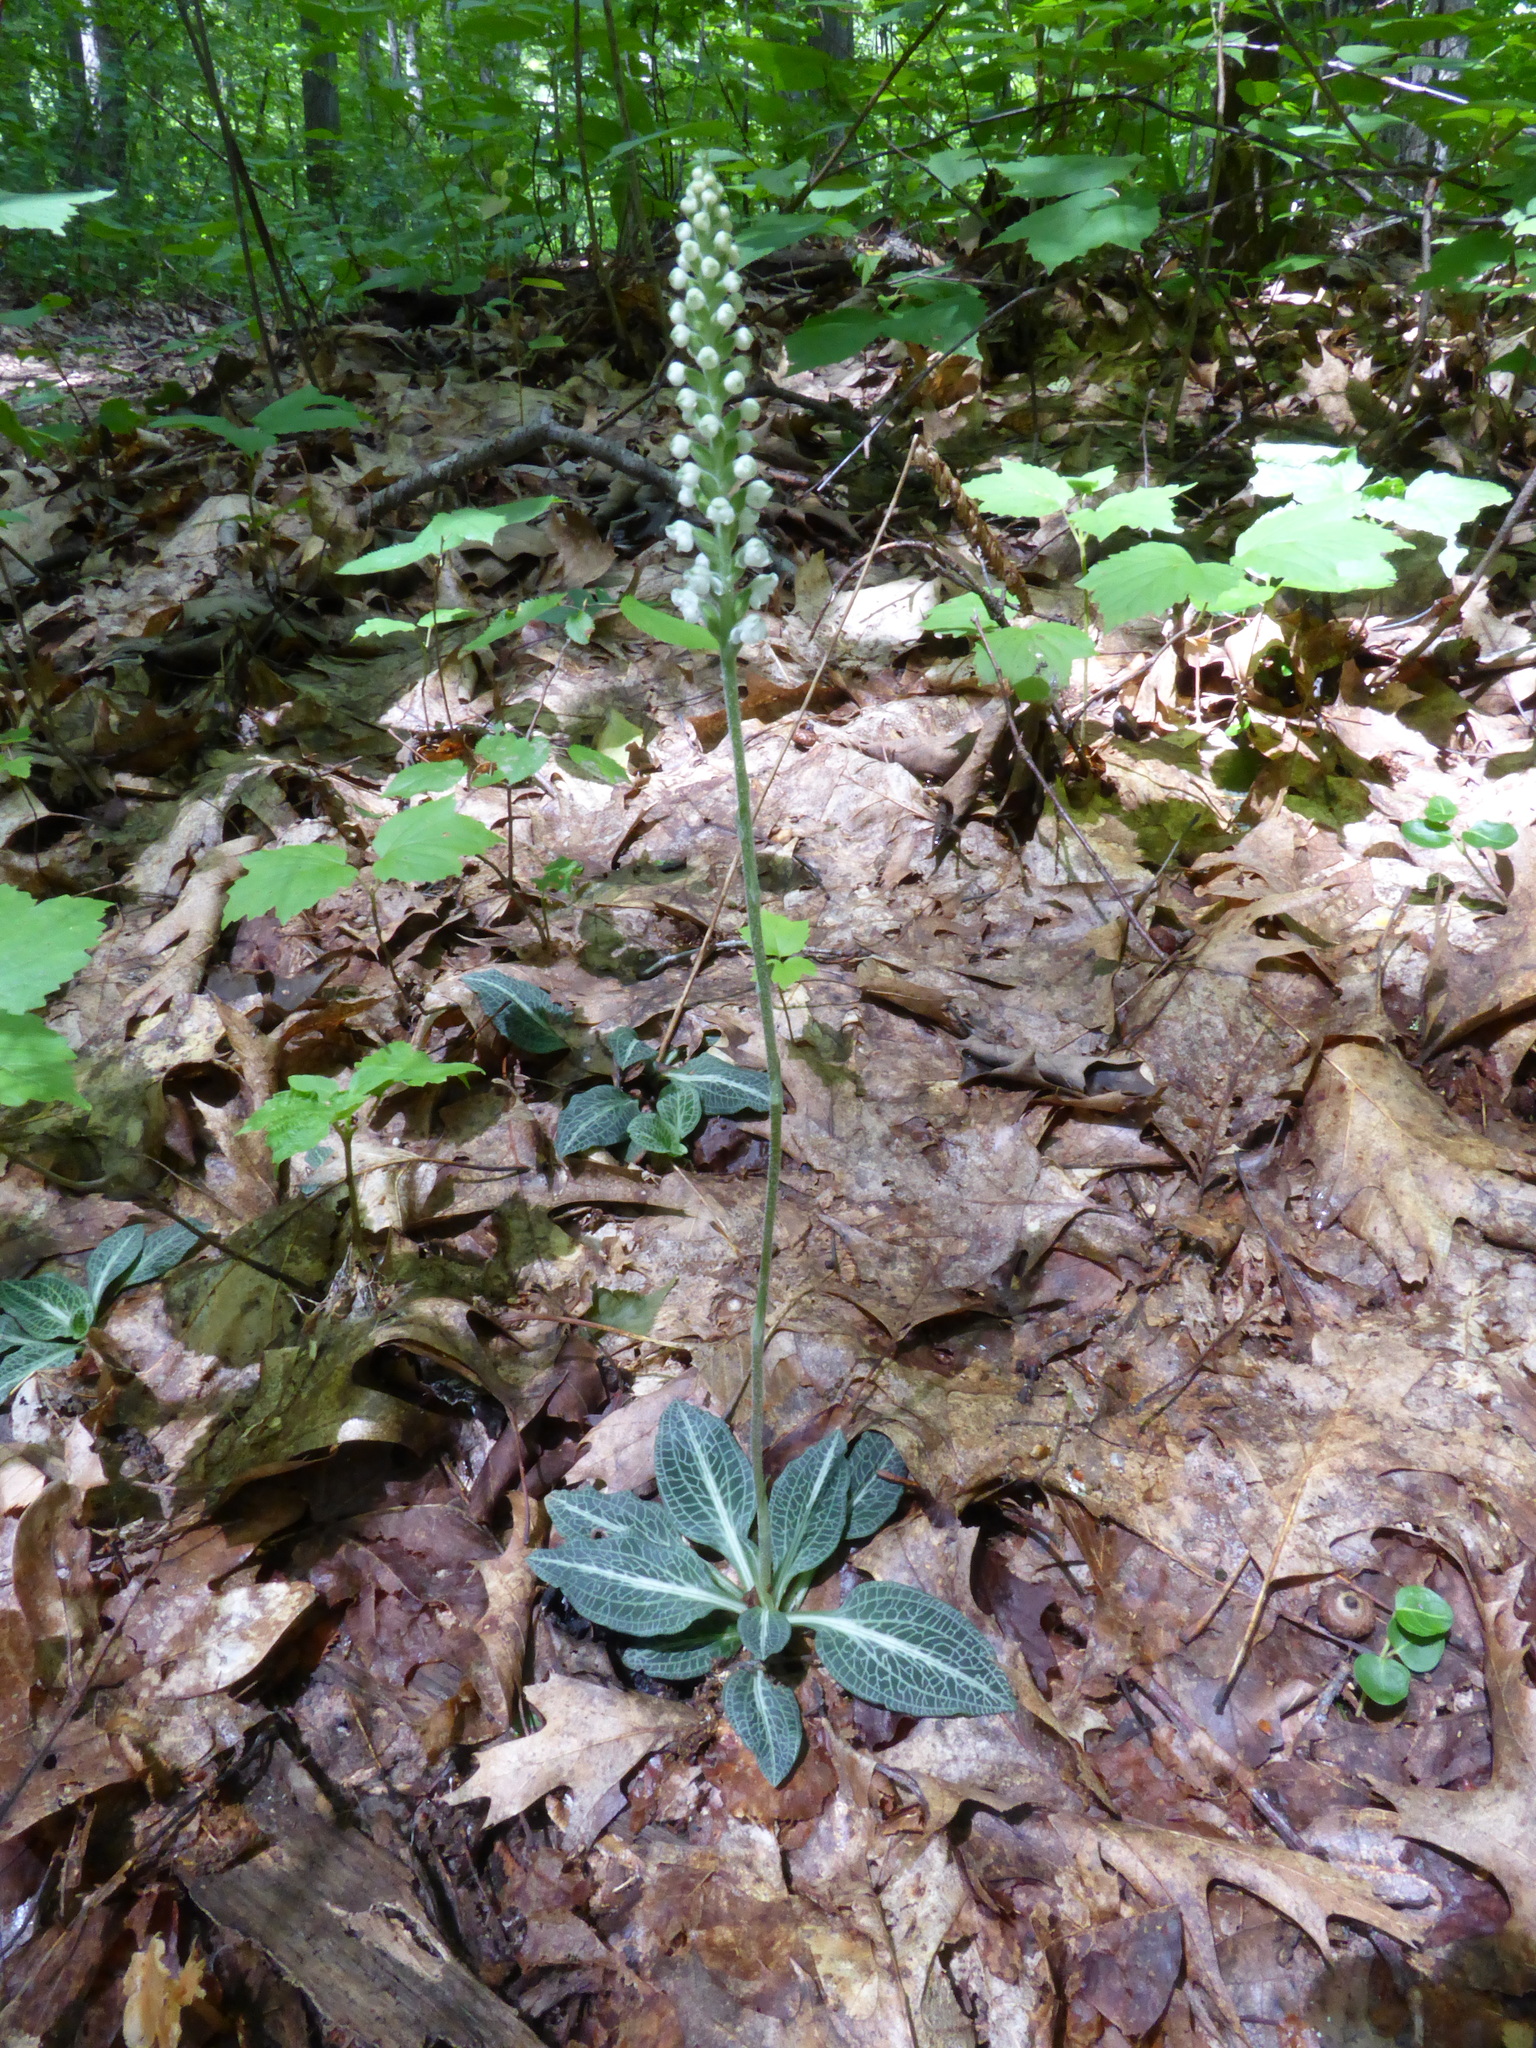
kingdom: Plantae
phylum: Tracheophyta
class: Liliopsida
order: Asparagales
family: Orchidaceae
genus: Goodyera
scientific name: Goodyera pubescens
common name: Downy rattlesnake-plantain
